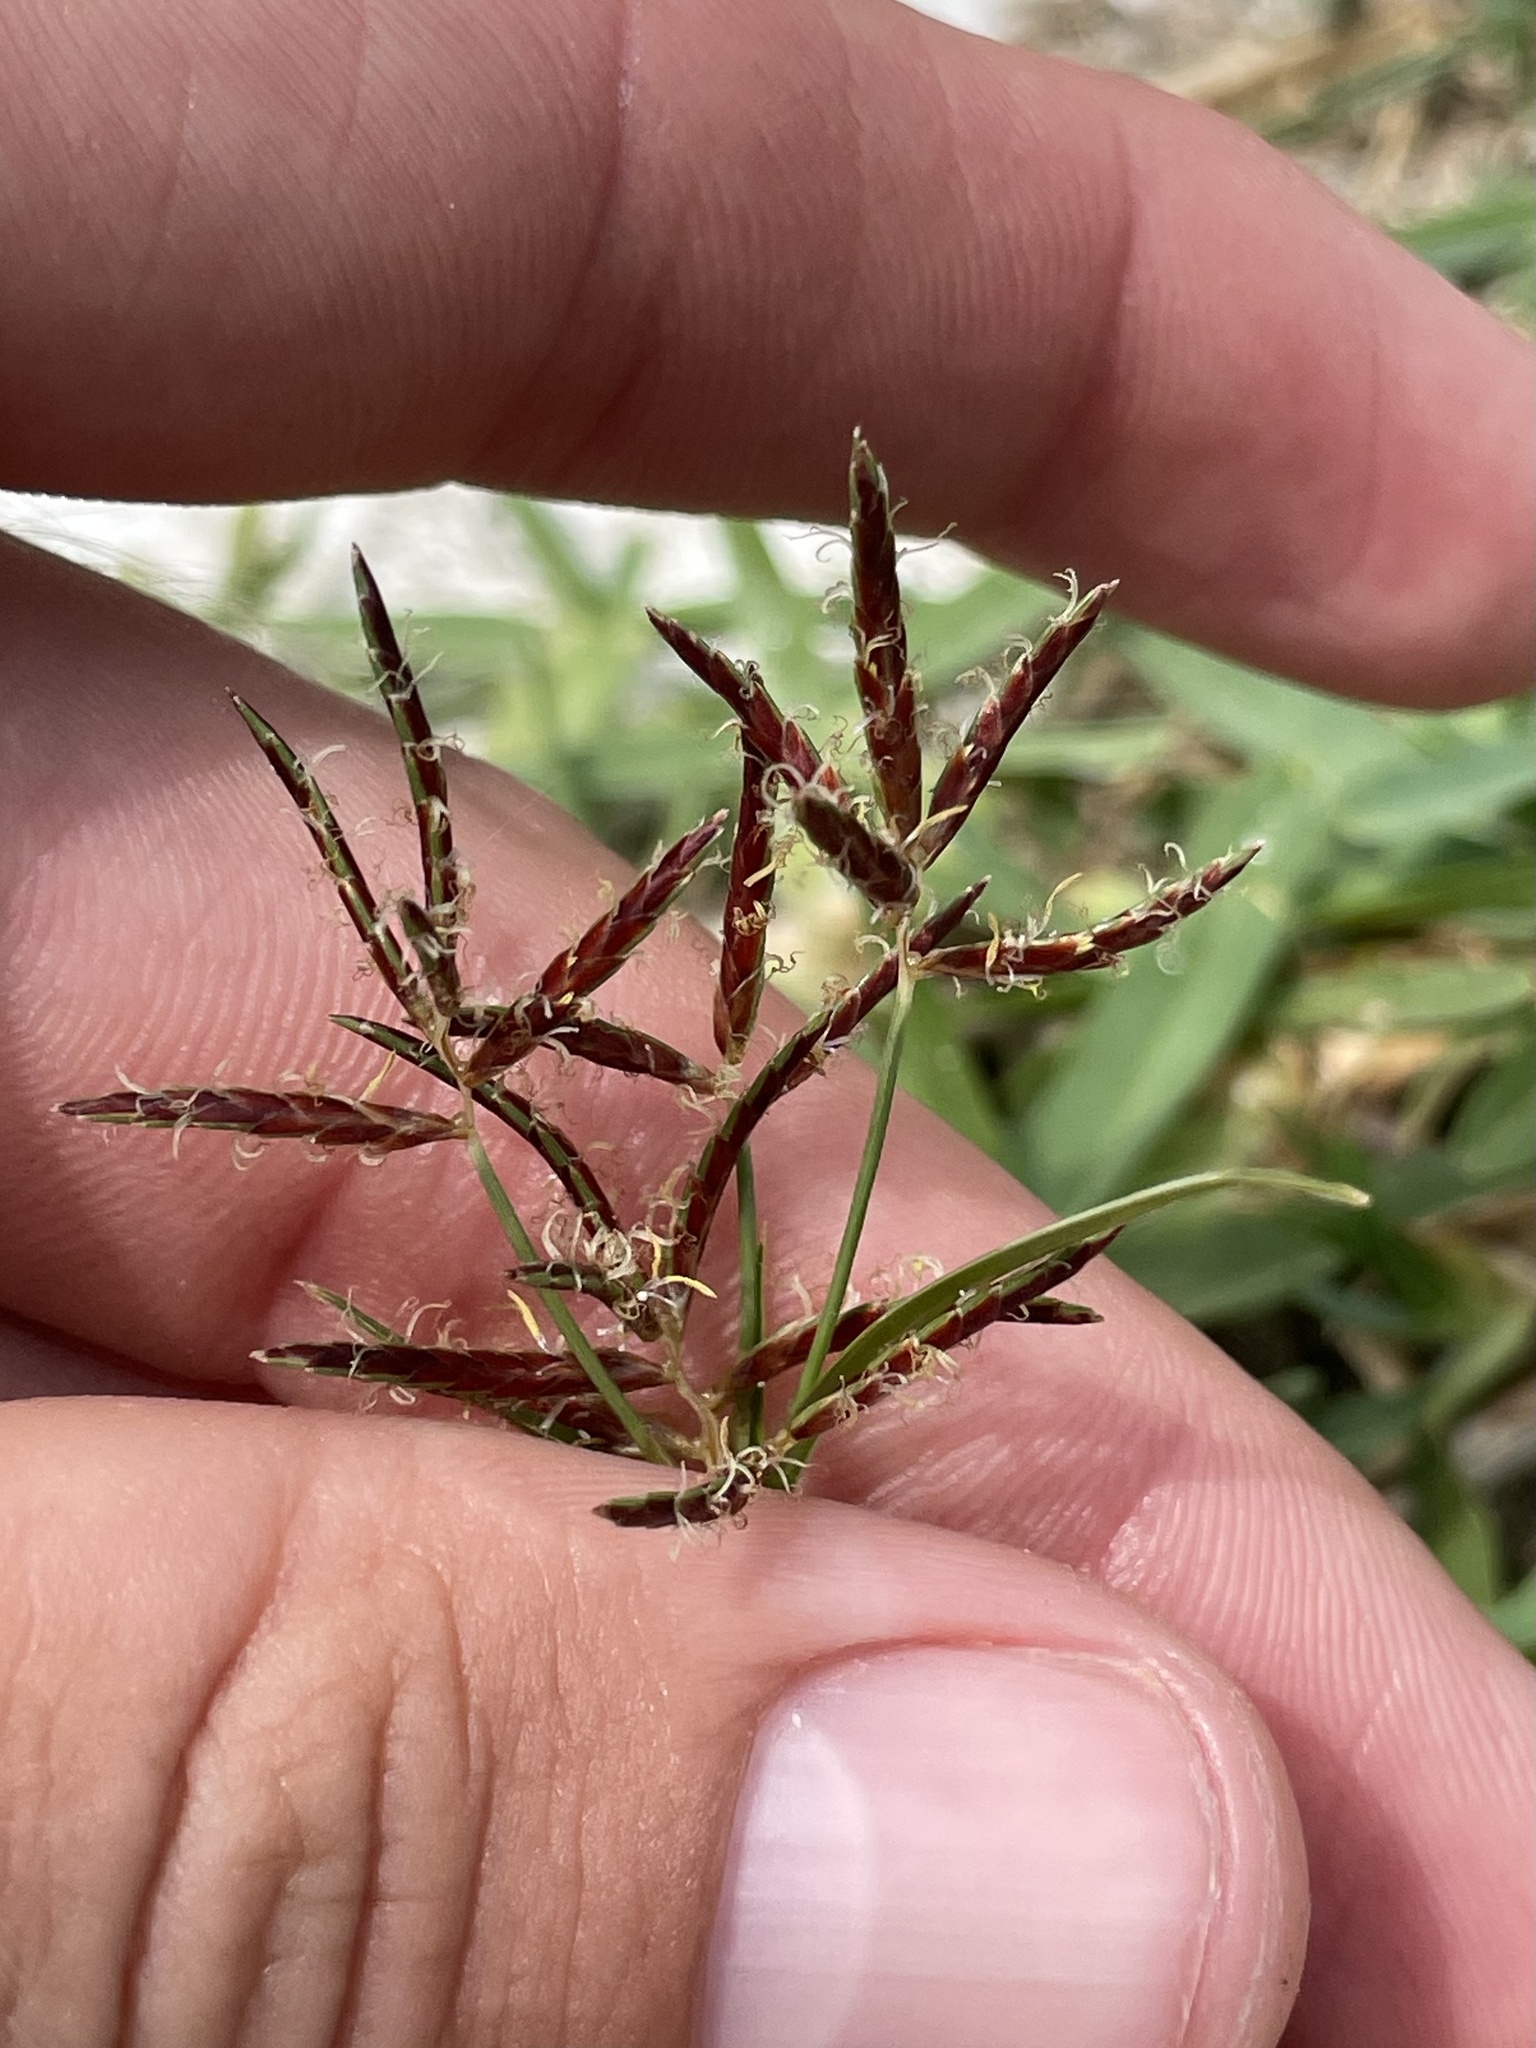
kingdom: Plantae
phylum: Tracheophyta
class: Liliopsida
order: Poales
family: Cyperaceae
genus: Cyperus
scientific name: Cyperus rotundus
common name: Nutgrass
